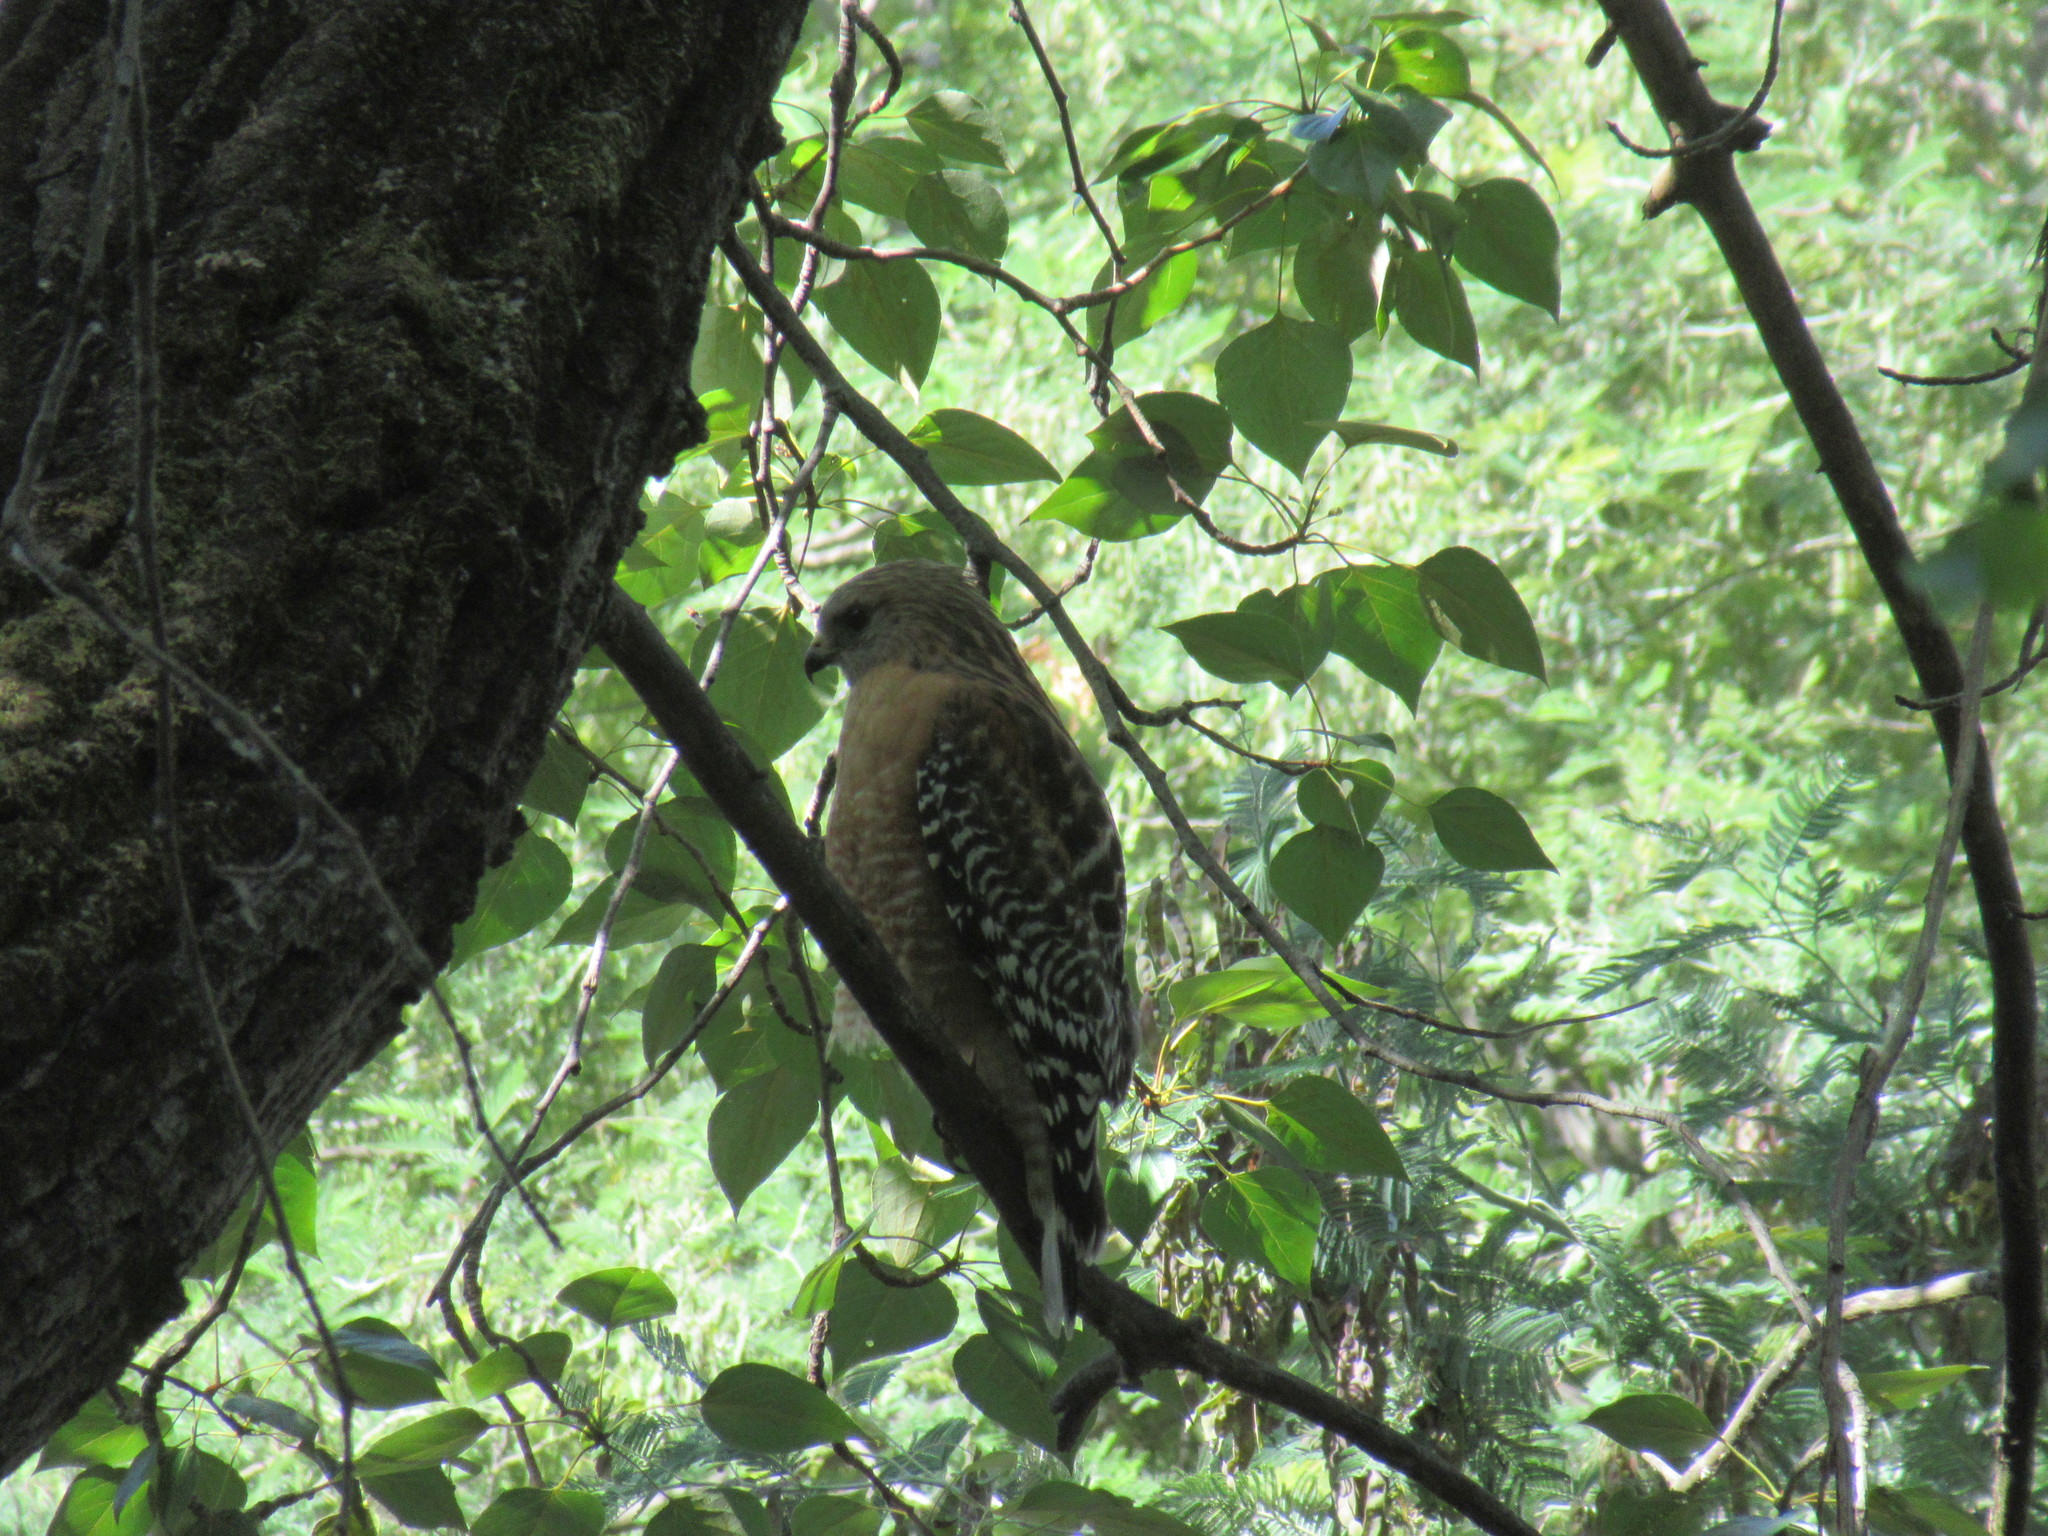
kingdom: Animalia
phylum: Chordata
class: Aves
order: Accipitriformes
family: Accipitridae
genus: Buteo
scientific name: Buteo lineatus
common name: Red-shouldered hawk
